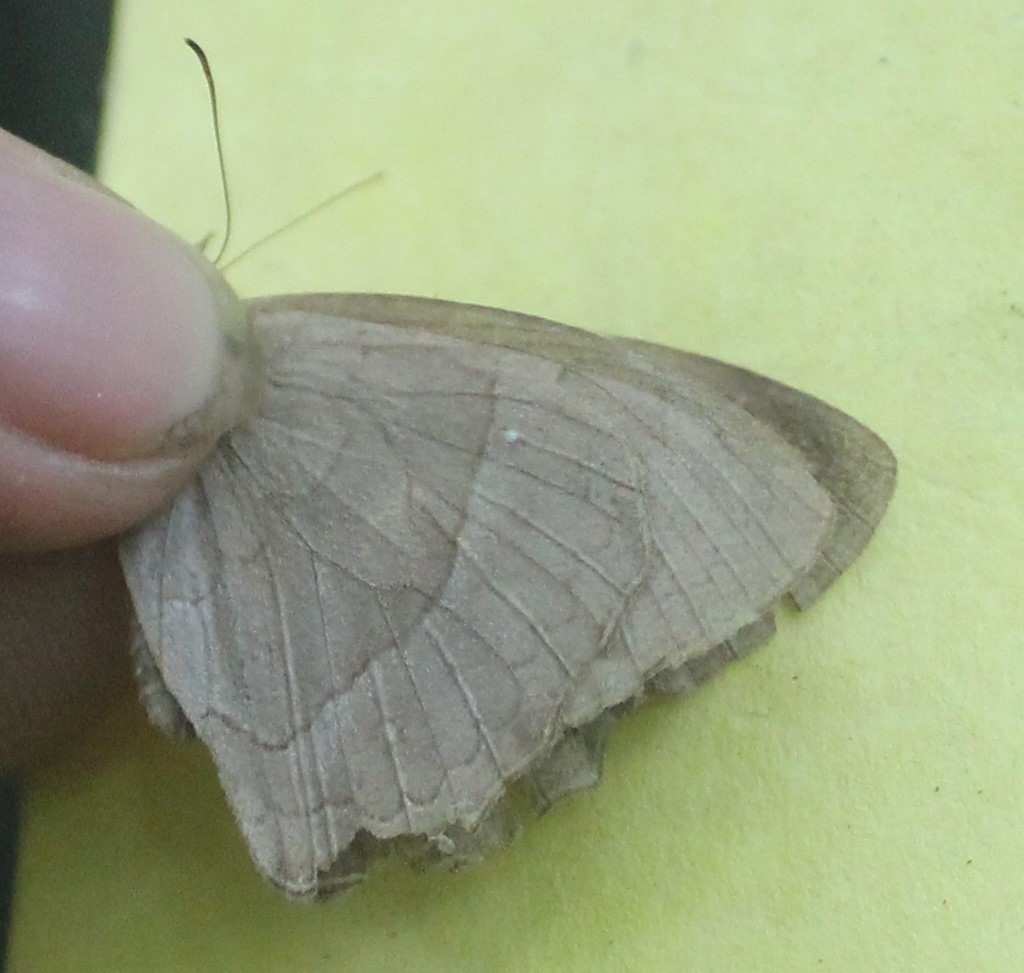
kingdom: Animalia
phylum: Arthropoda
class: Insecta
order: Lepidoptera
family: Nymphalidae
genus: Taygetina
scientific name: Taygetina kerea
